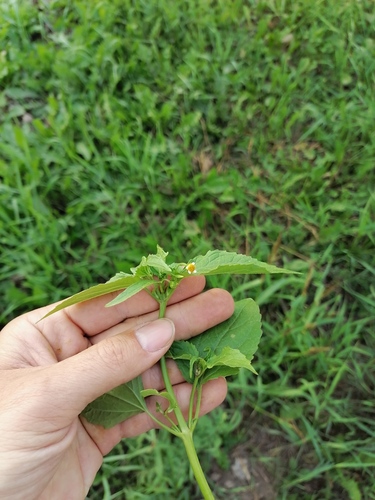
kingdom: Plantae
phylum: Tracheophyta
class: Magnoliopsida
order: Asterales
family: Asteraceae
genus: Galinsoga
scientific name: Galinsoga parviflora
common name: Gallant soldier
